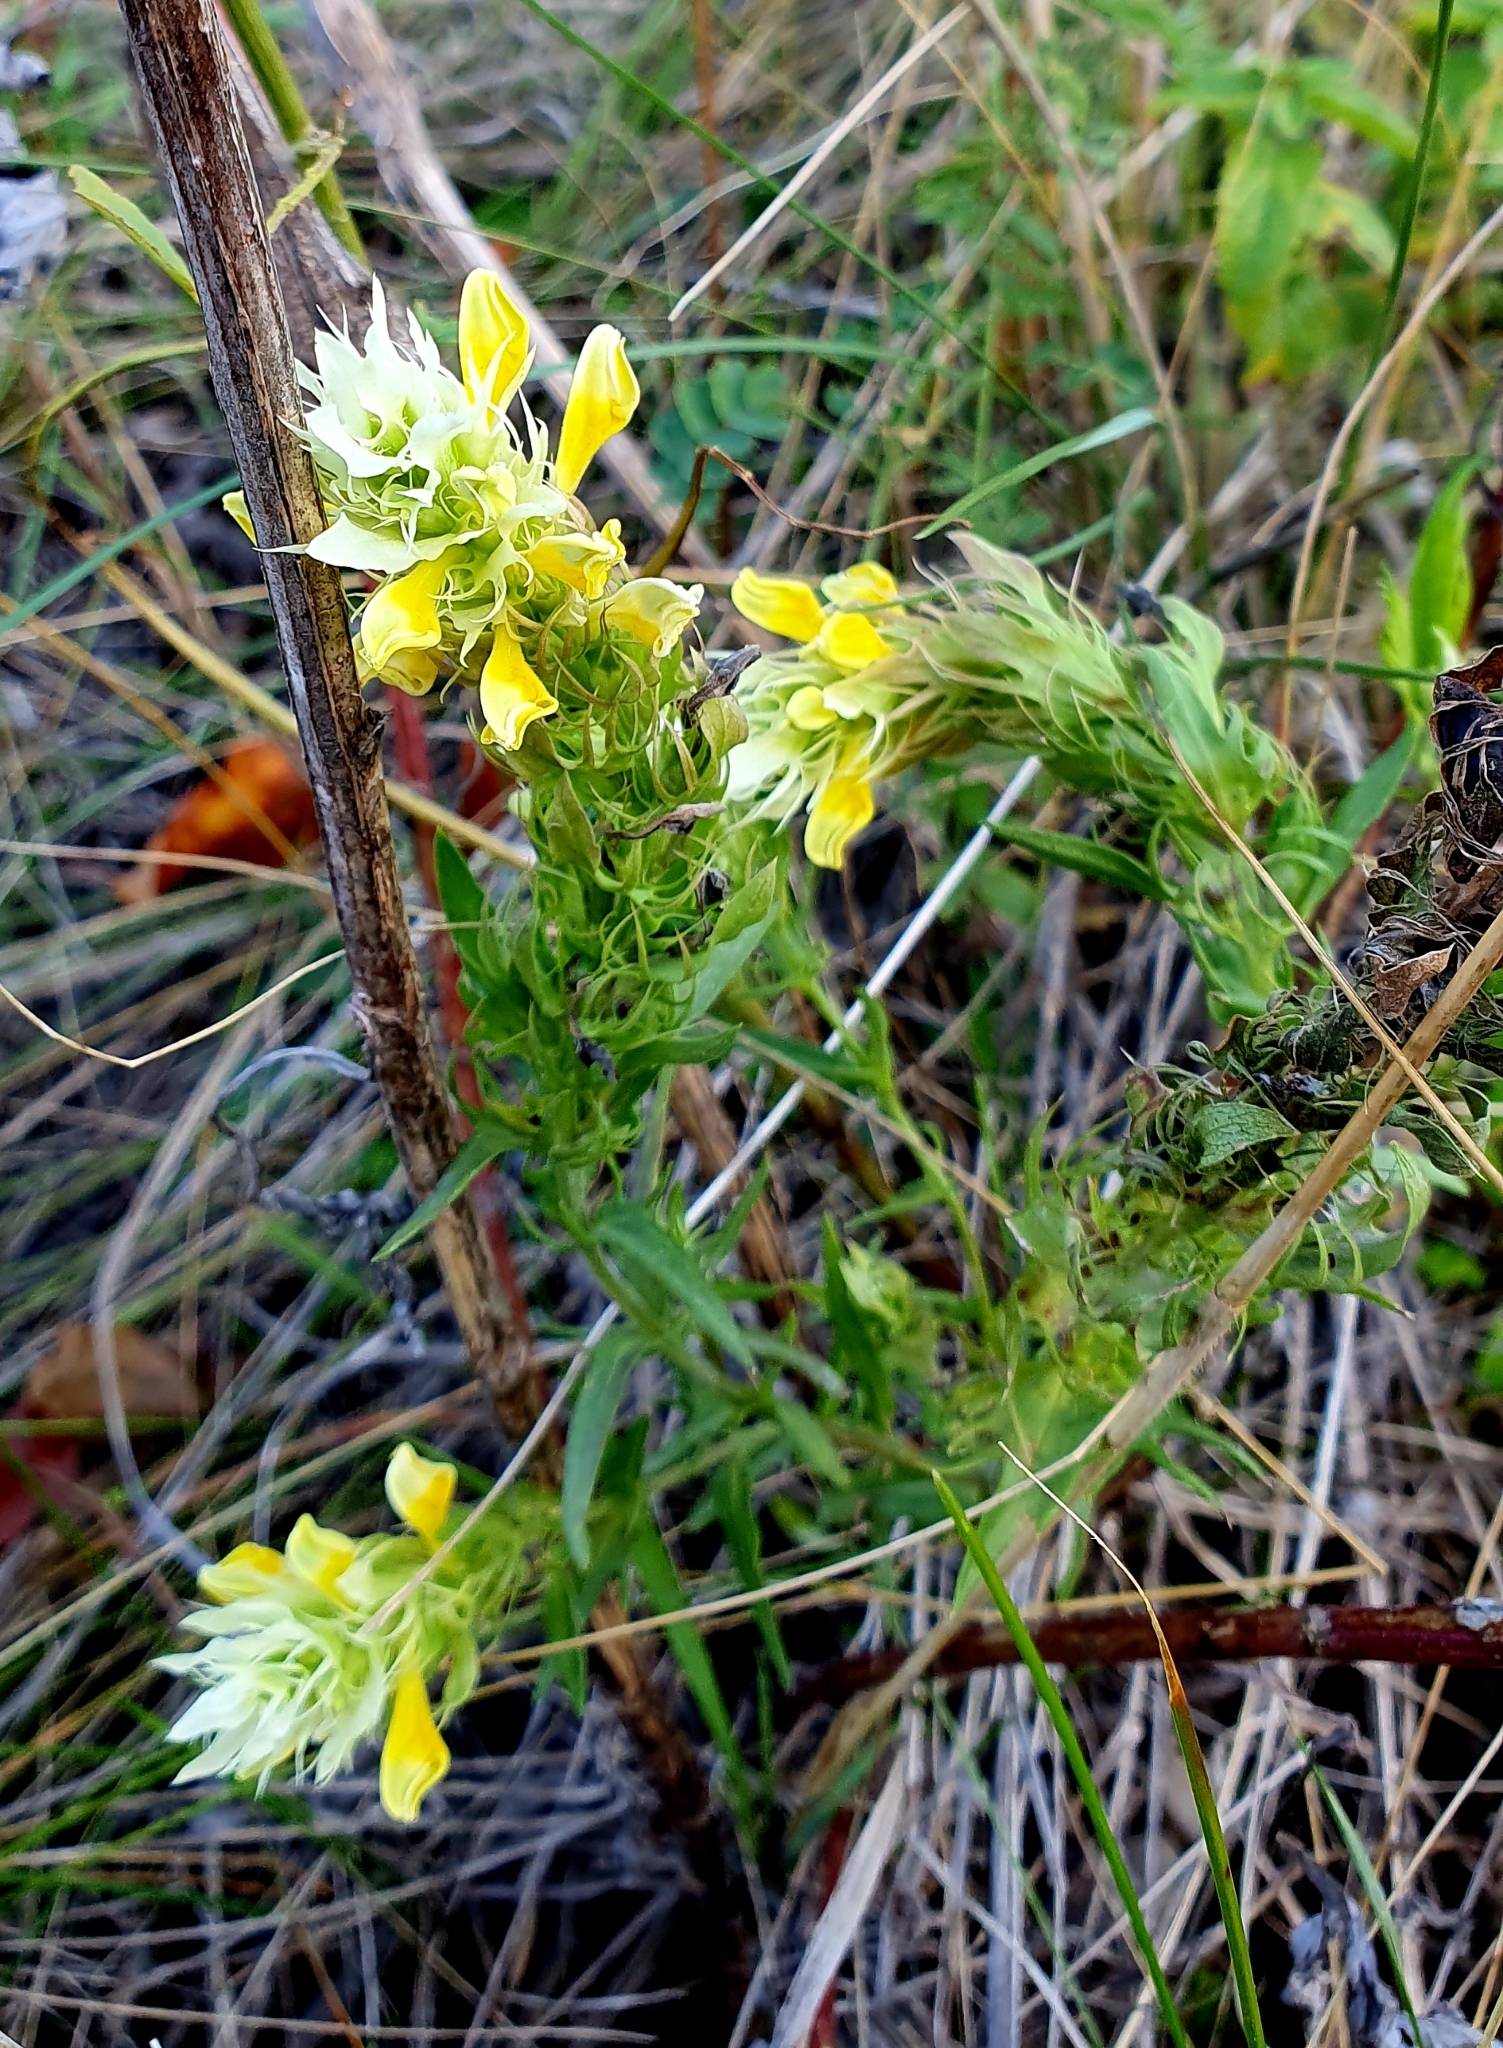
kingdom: Plantae
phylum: Tracheophyta
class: Magnoliopsida
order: Lamiales
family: Orobanchaceae
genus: Melampyrum
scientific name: Melampyrum arvense
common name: Field cow-wheat
